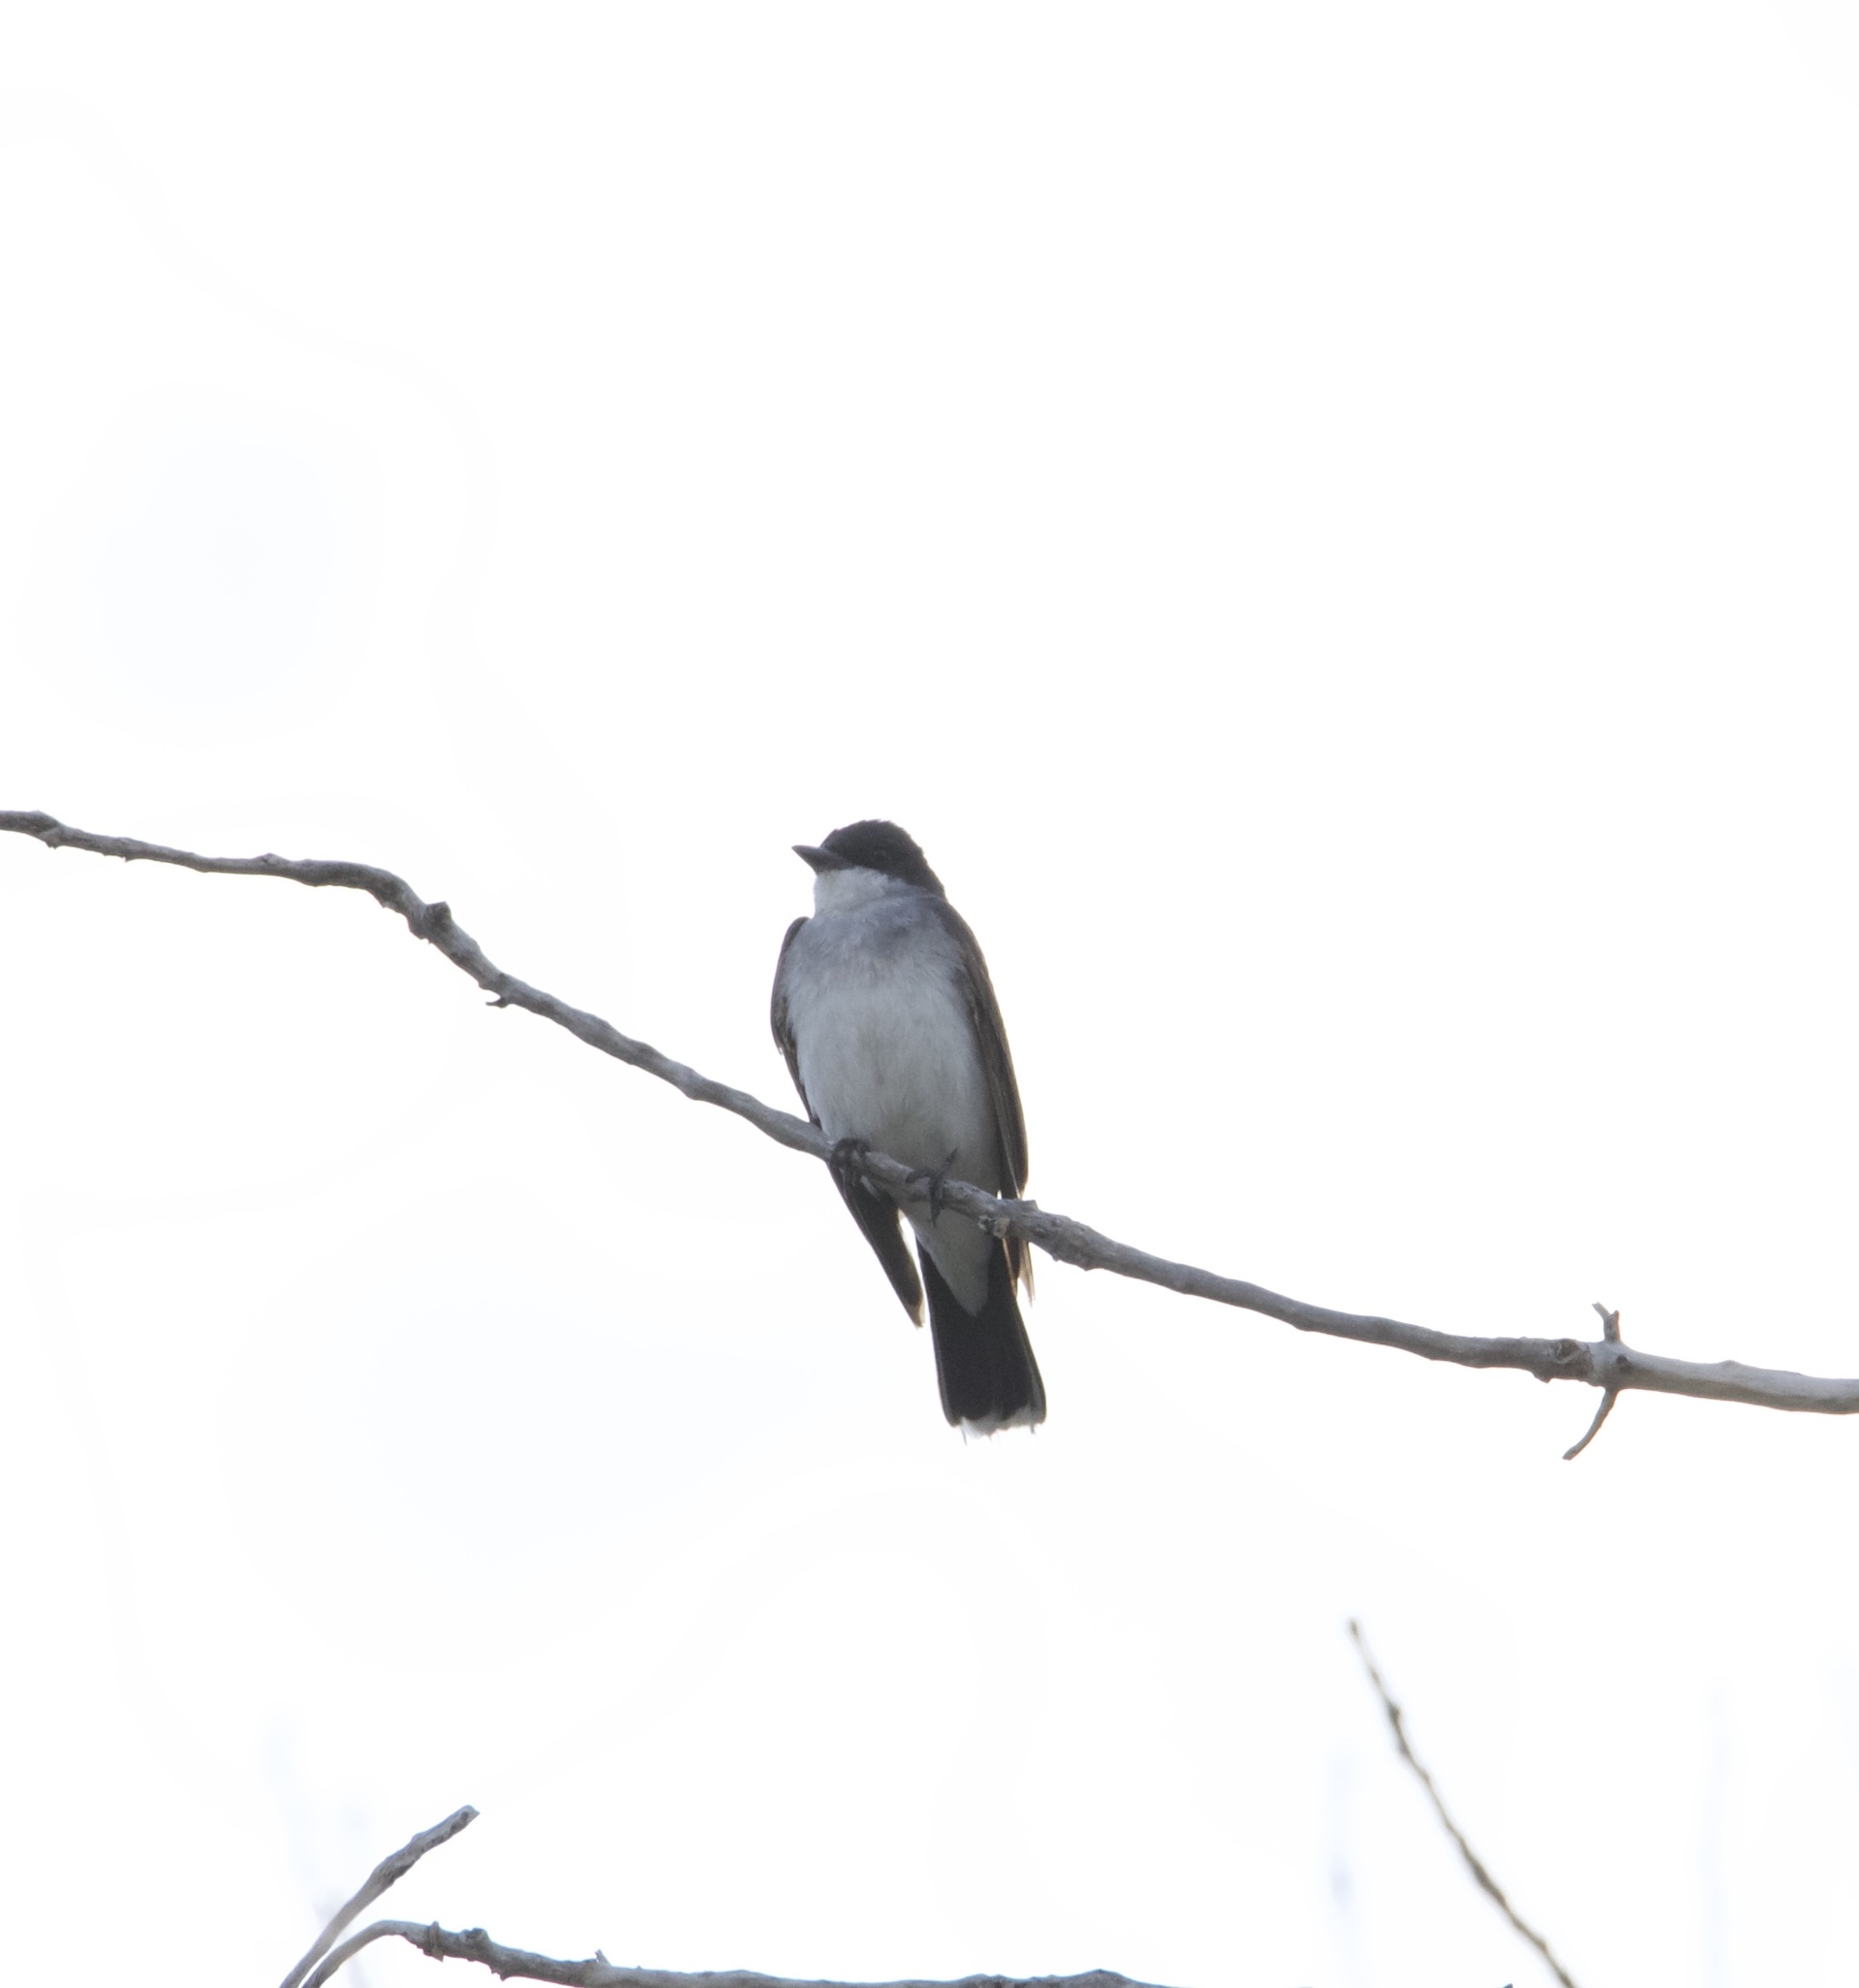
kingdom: Animalia
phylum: Chordata
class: Aves
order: Passeriformes
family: Tyrannidae
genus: Tyrannus
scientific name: Tyrannus tyrannus
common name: Eastern kingbird
